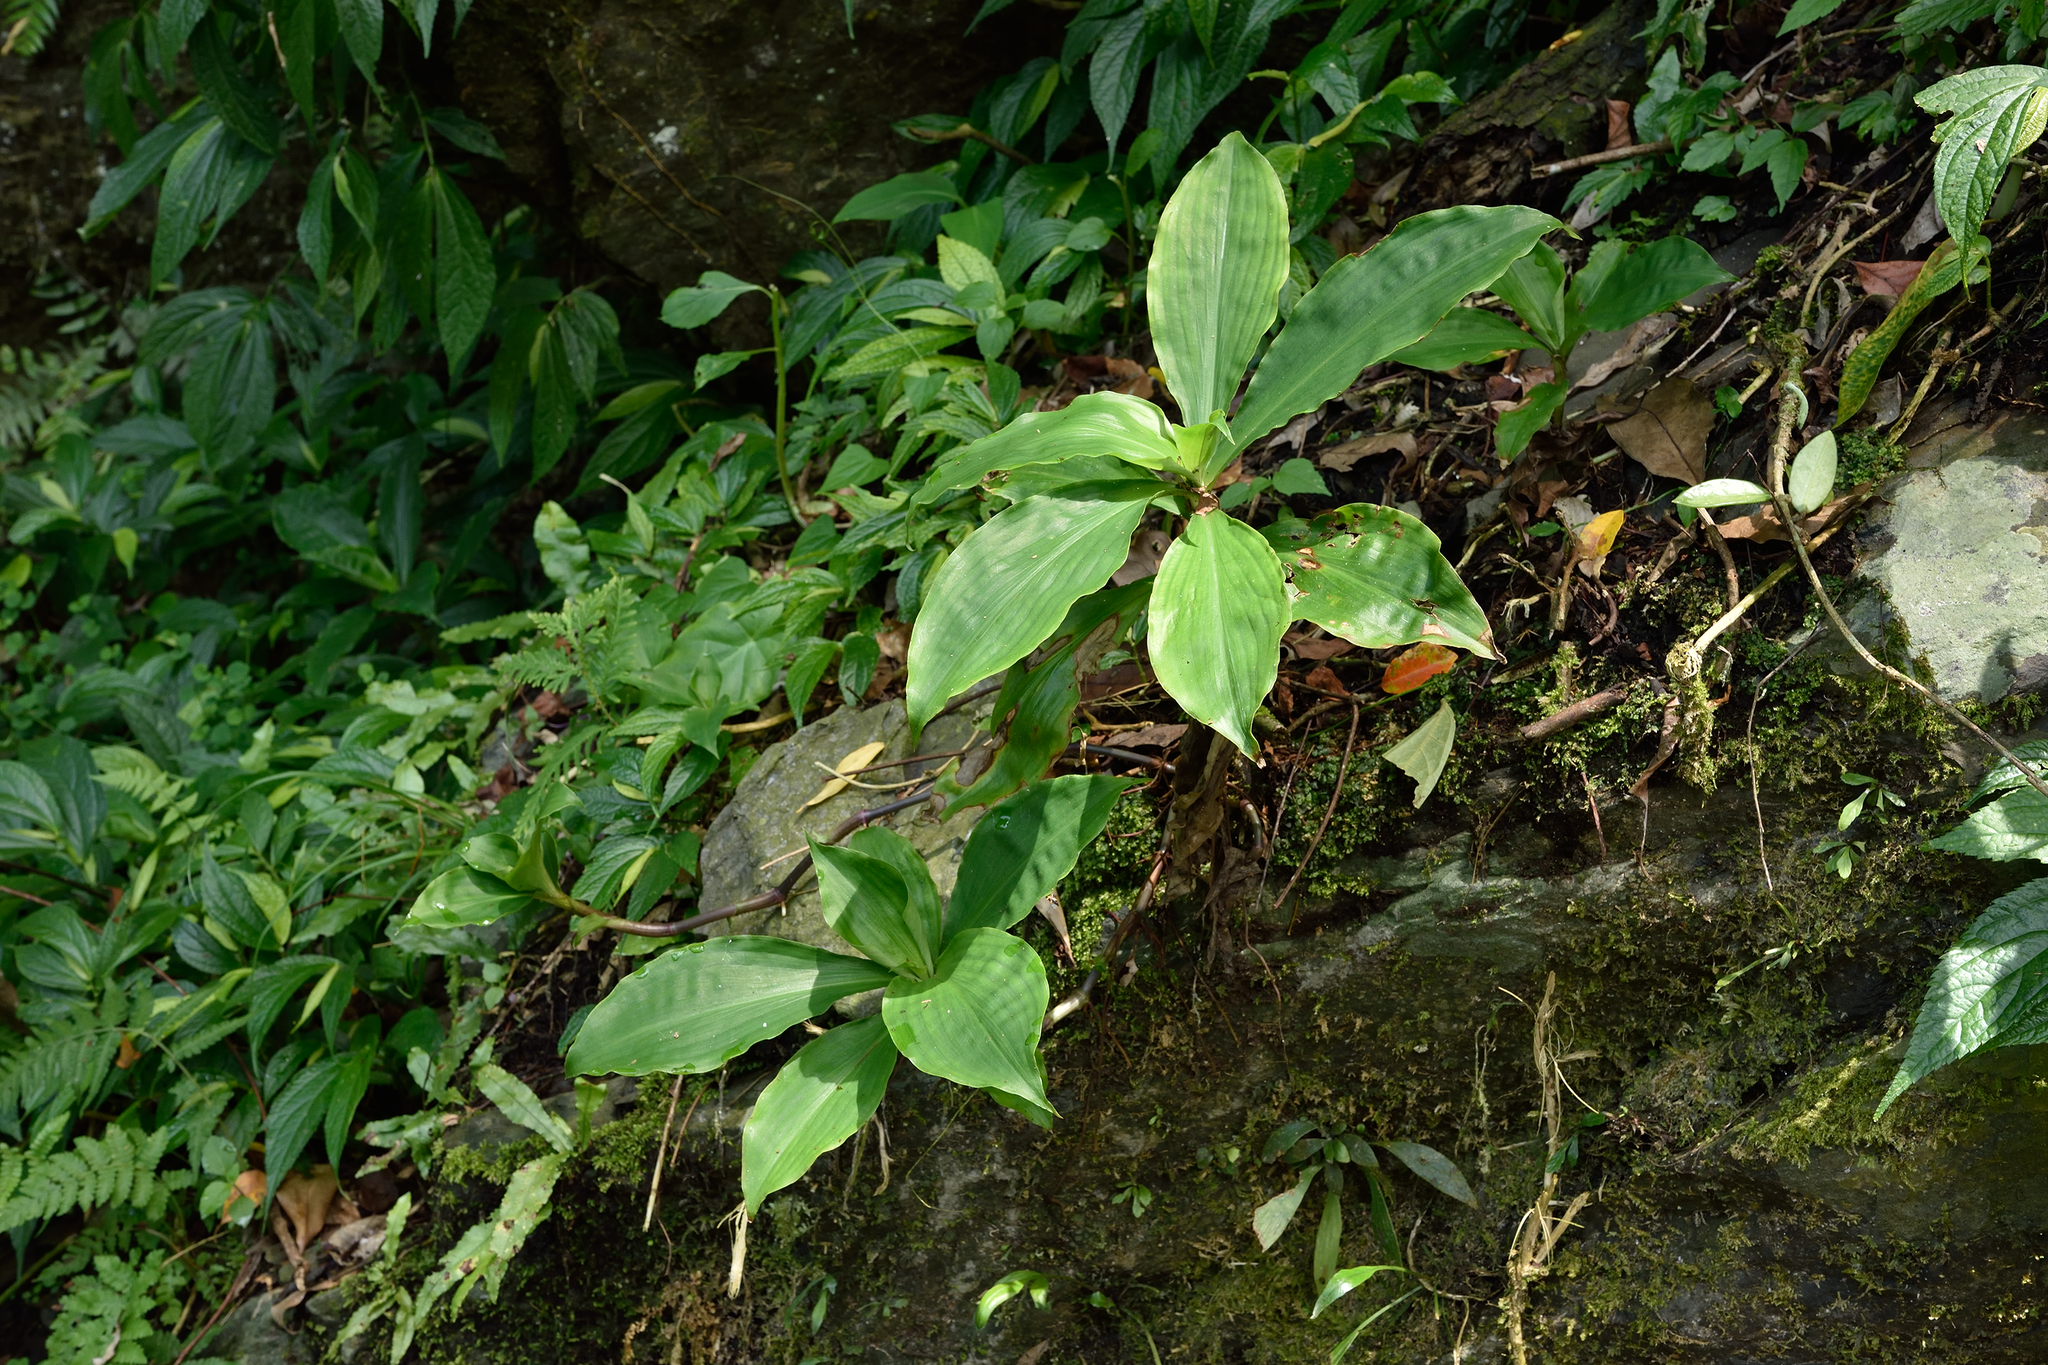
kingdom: Plantae
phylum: Tracheophyta
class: Liliopsida
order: Commelinales
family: Commelinaceae
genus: Amischotolype
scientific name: Amischotolype glabrata
